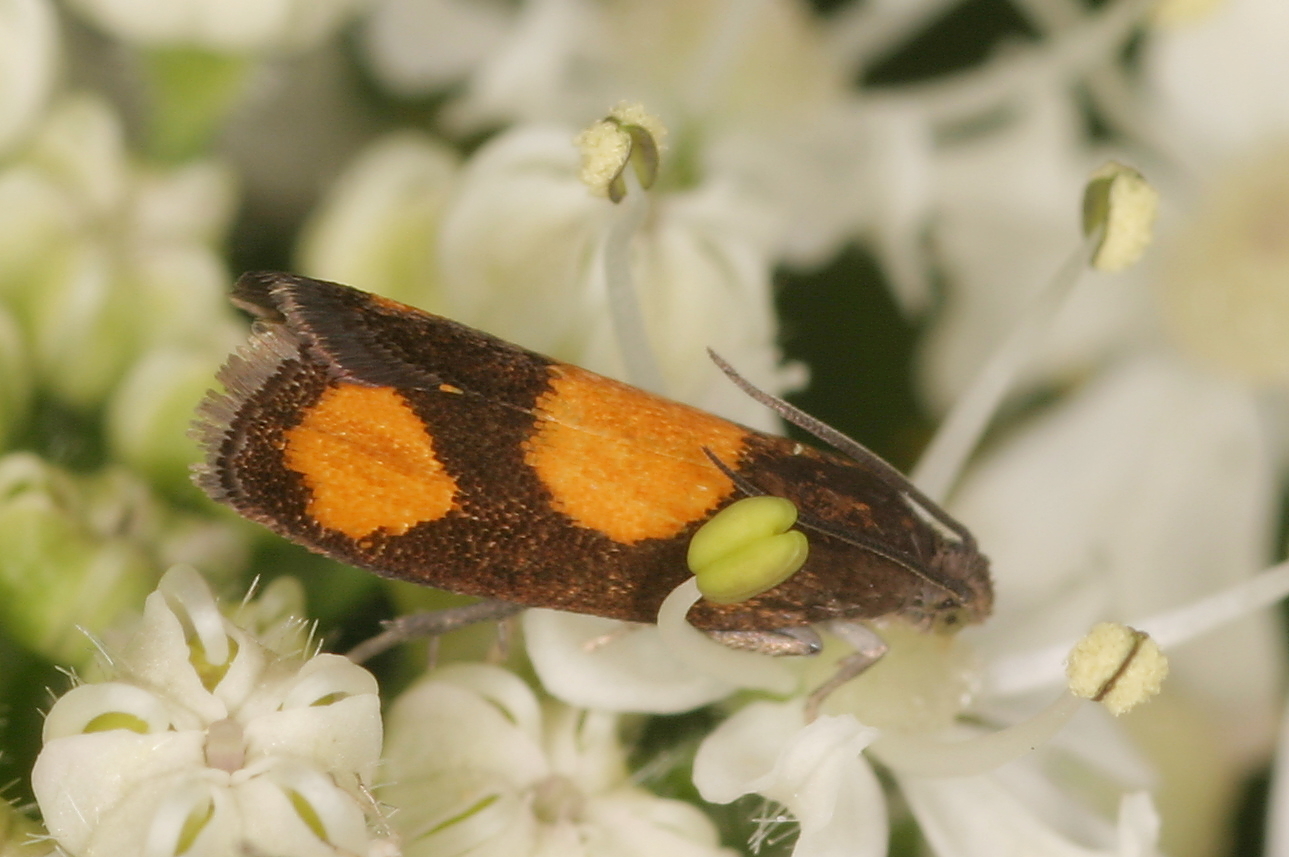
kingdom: Animalia
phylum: Arthropoda
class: Insecta
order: Lepidoptera
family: Tortricidae
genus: Pammene
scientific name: Pammene aurana
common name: Orange-spot piercer
